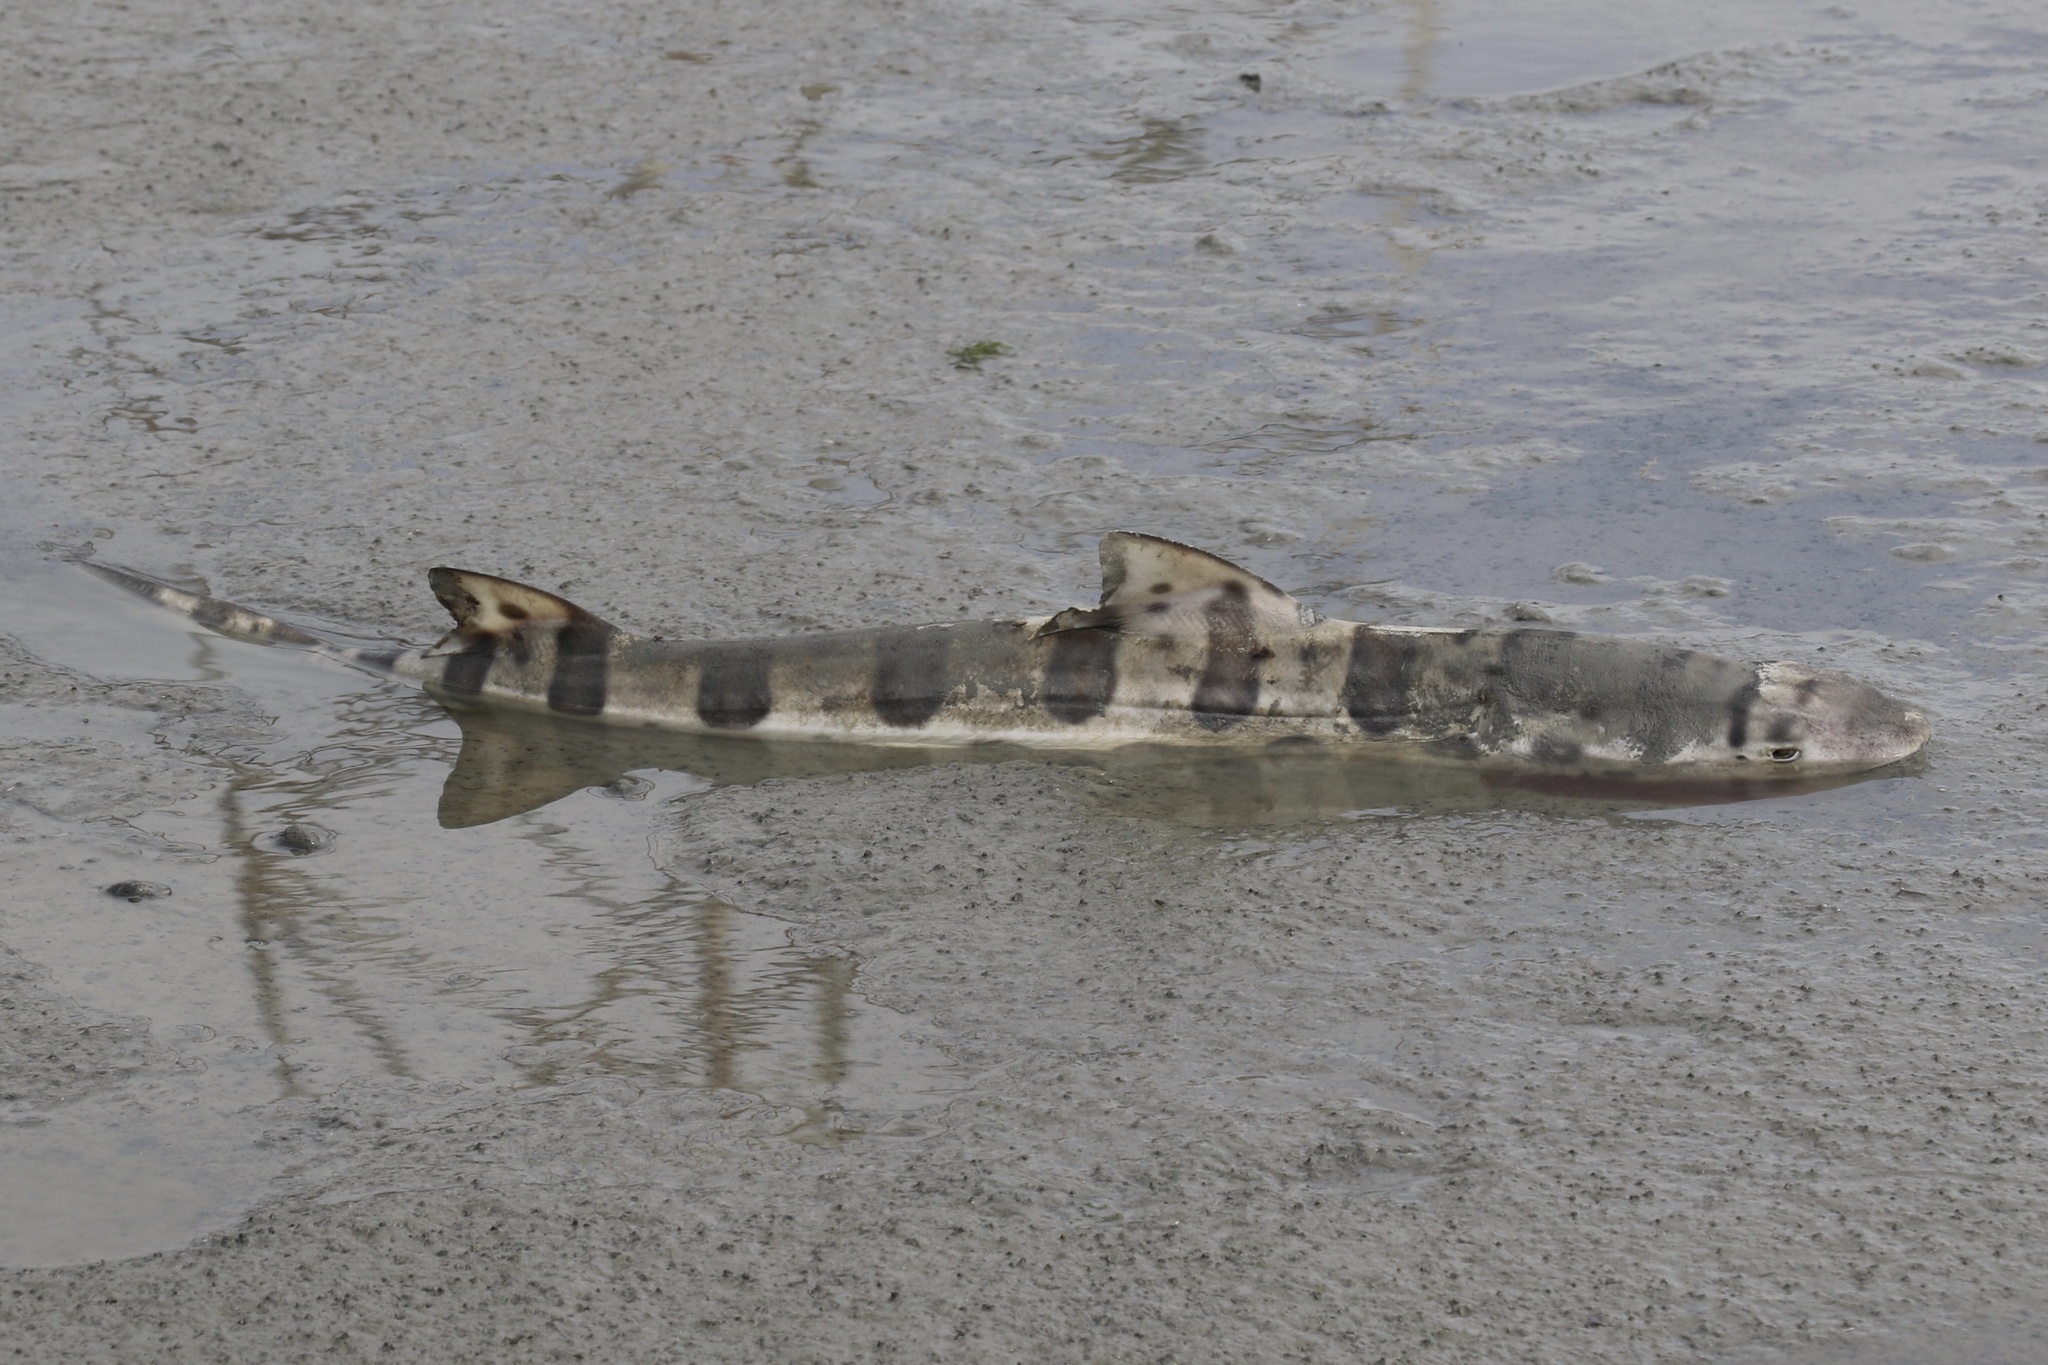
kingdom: Animalia
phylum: Chordata
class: Elasmobranchii
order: Carcharhiniformes
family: Triakidae
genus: Triakis
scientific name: Triakis semifasciata
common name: Leopard shark
